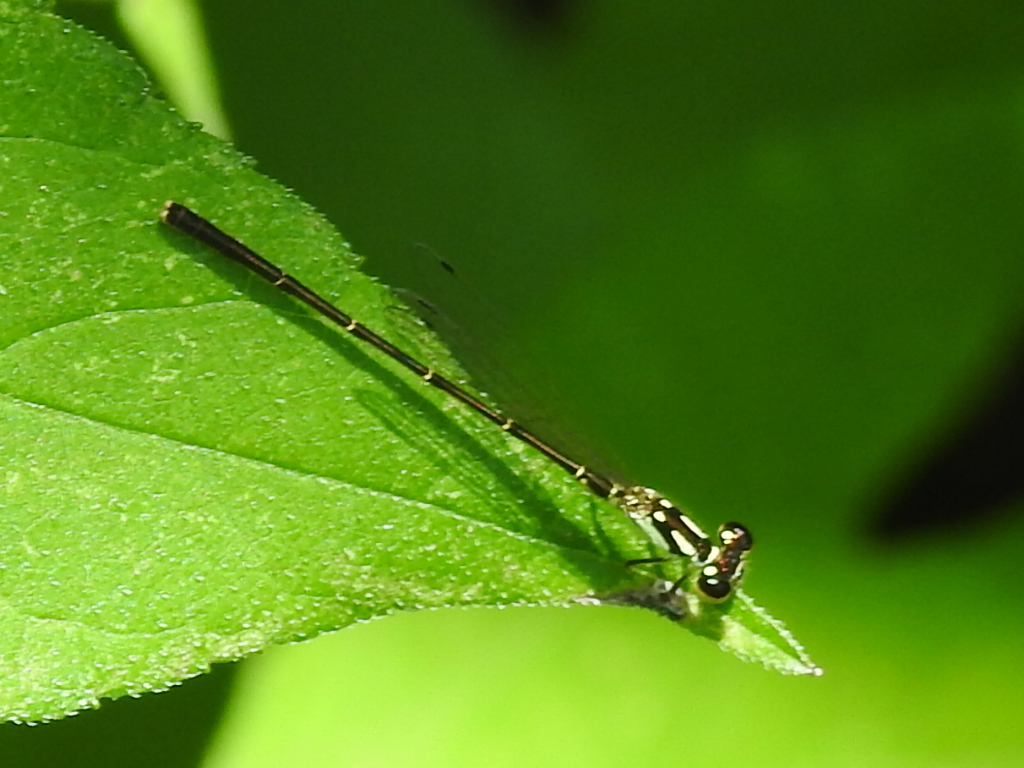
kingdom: Animalia
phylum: Arthropoda
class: Insecta
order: Odonata
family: Coenagrionidae
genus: Ischnura
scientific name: Ischnura posita
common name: Fragile forktail
